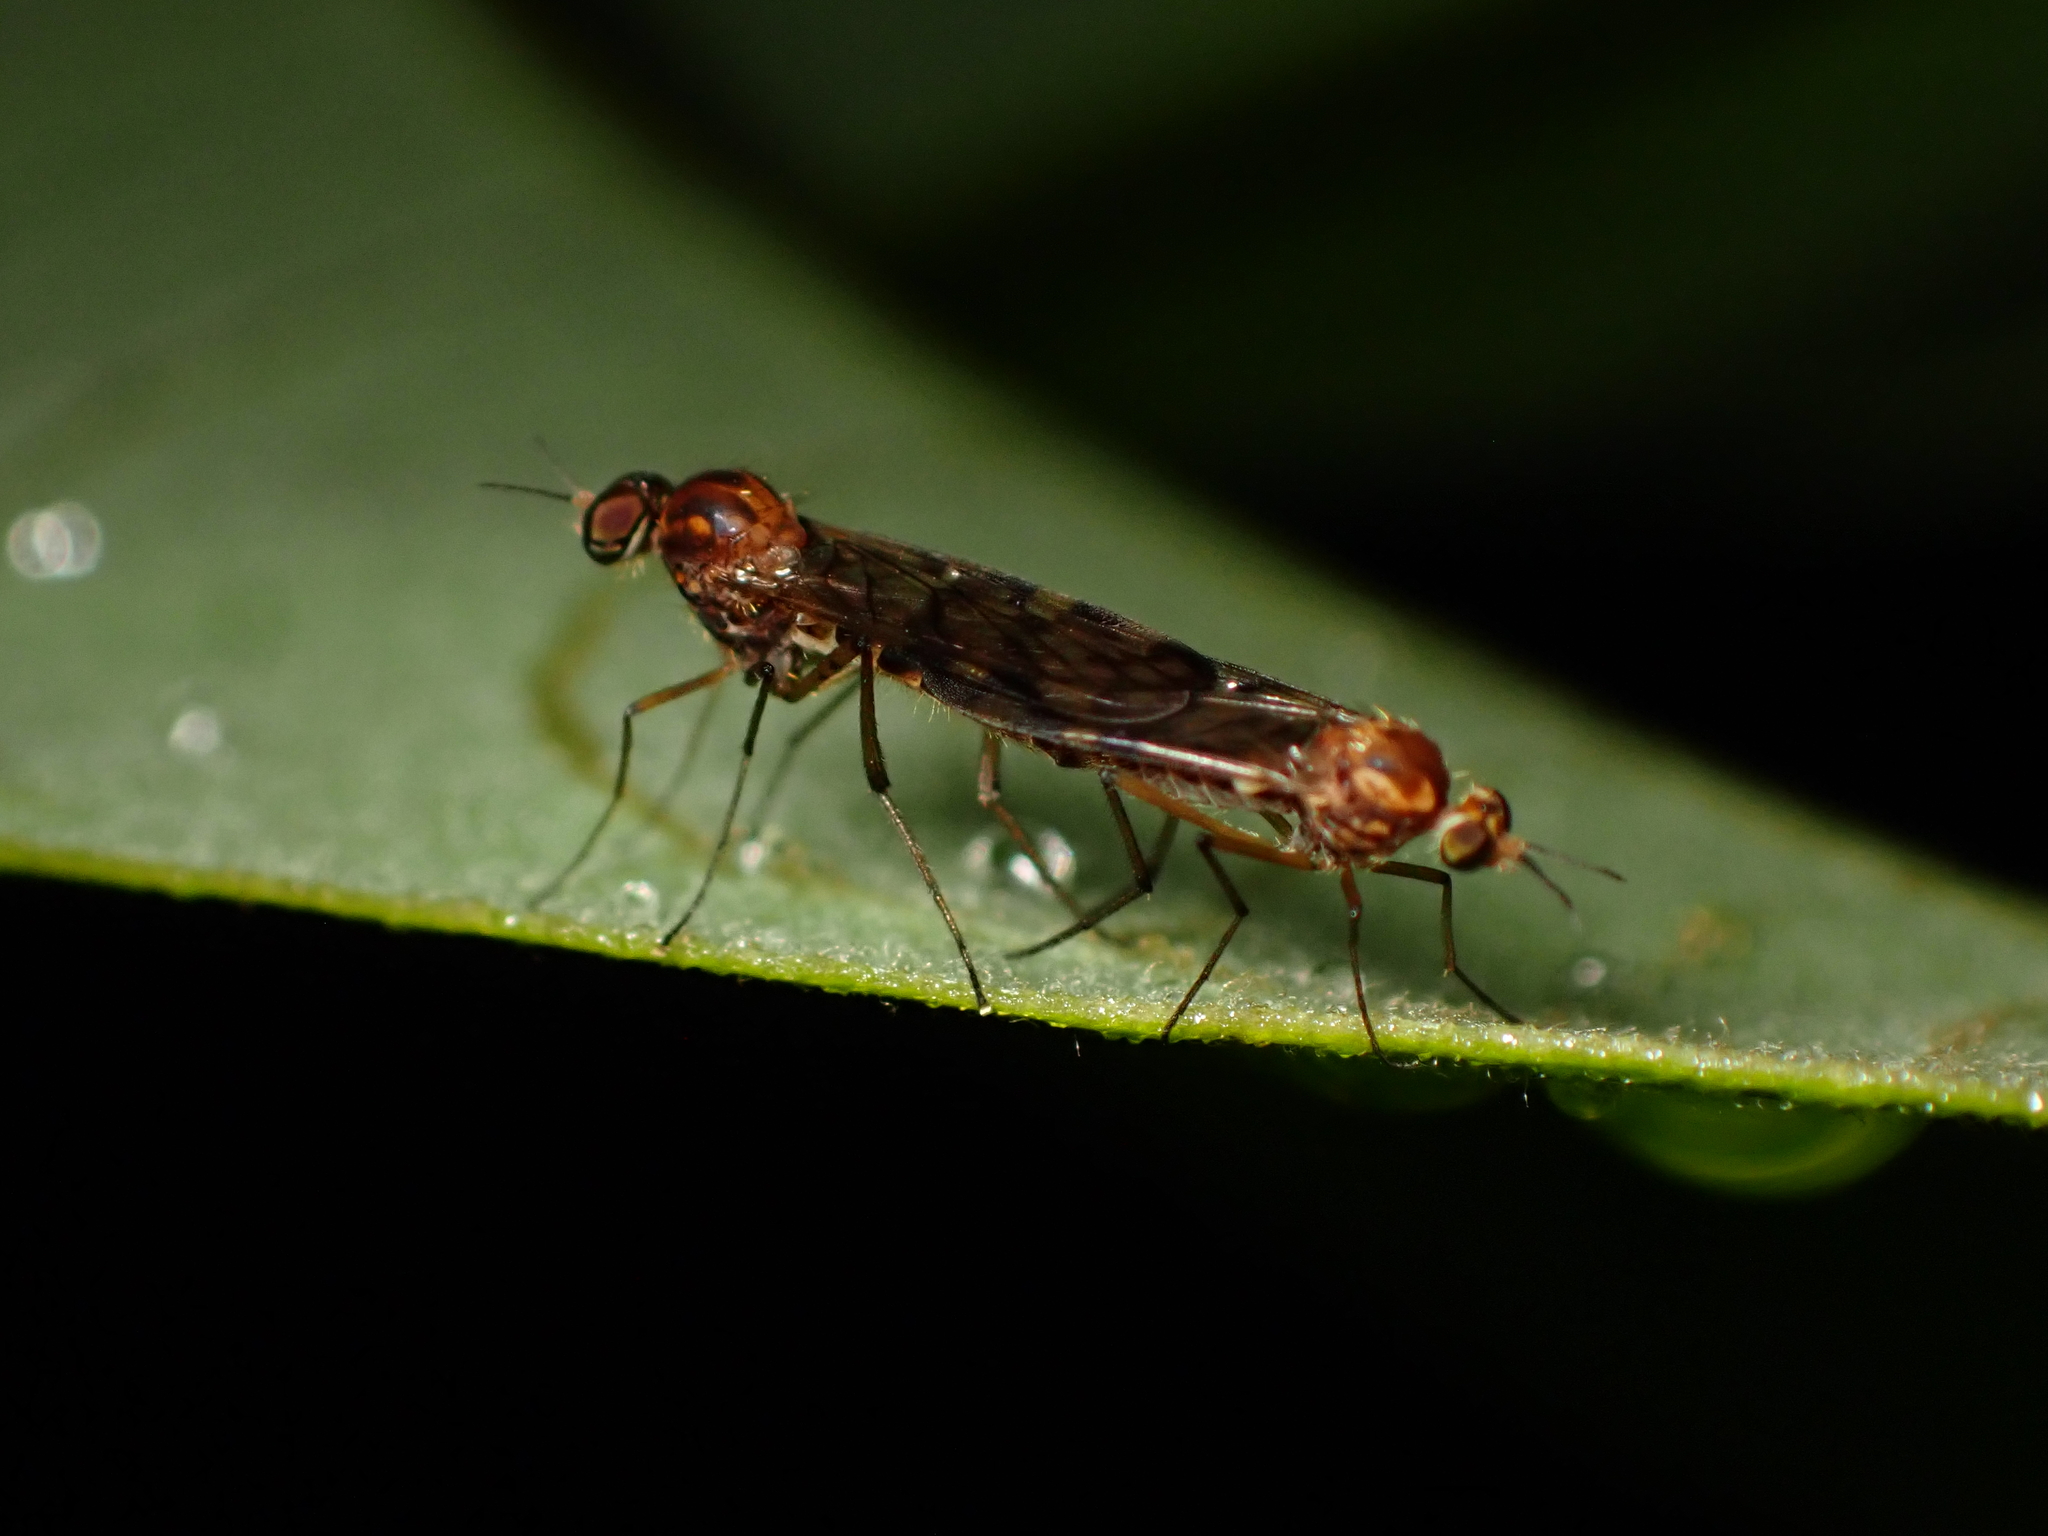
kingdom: Animalia
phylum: Arthropoda
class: Insecta
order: Diptera
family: Anisopodidae
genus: Sylvicola
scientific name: Sylvicola dubius
